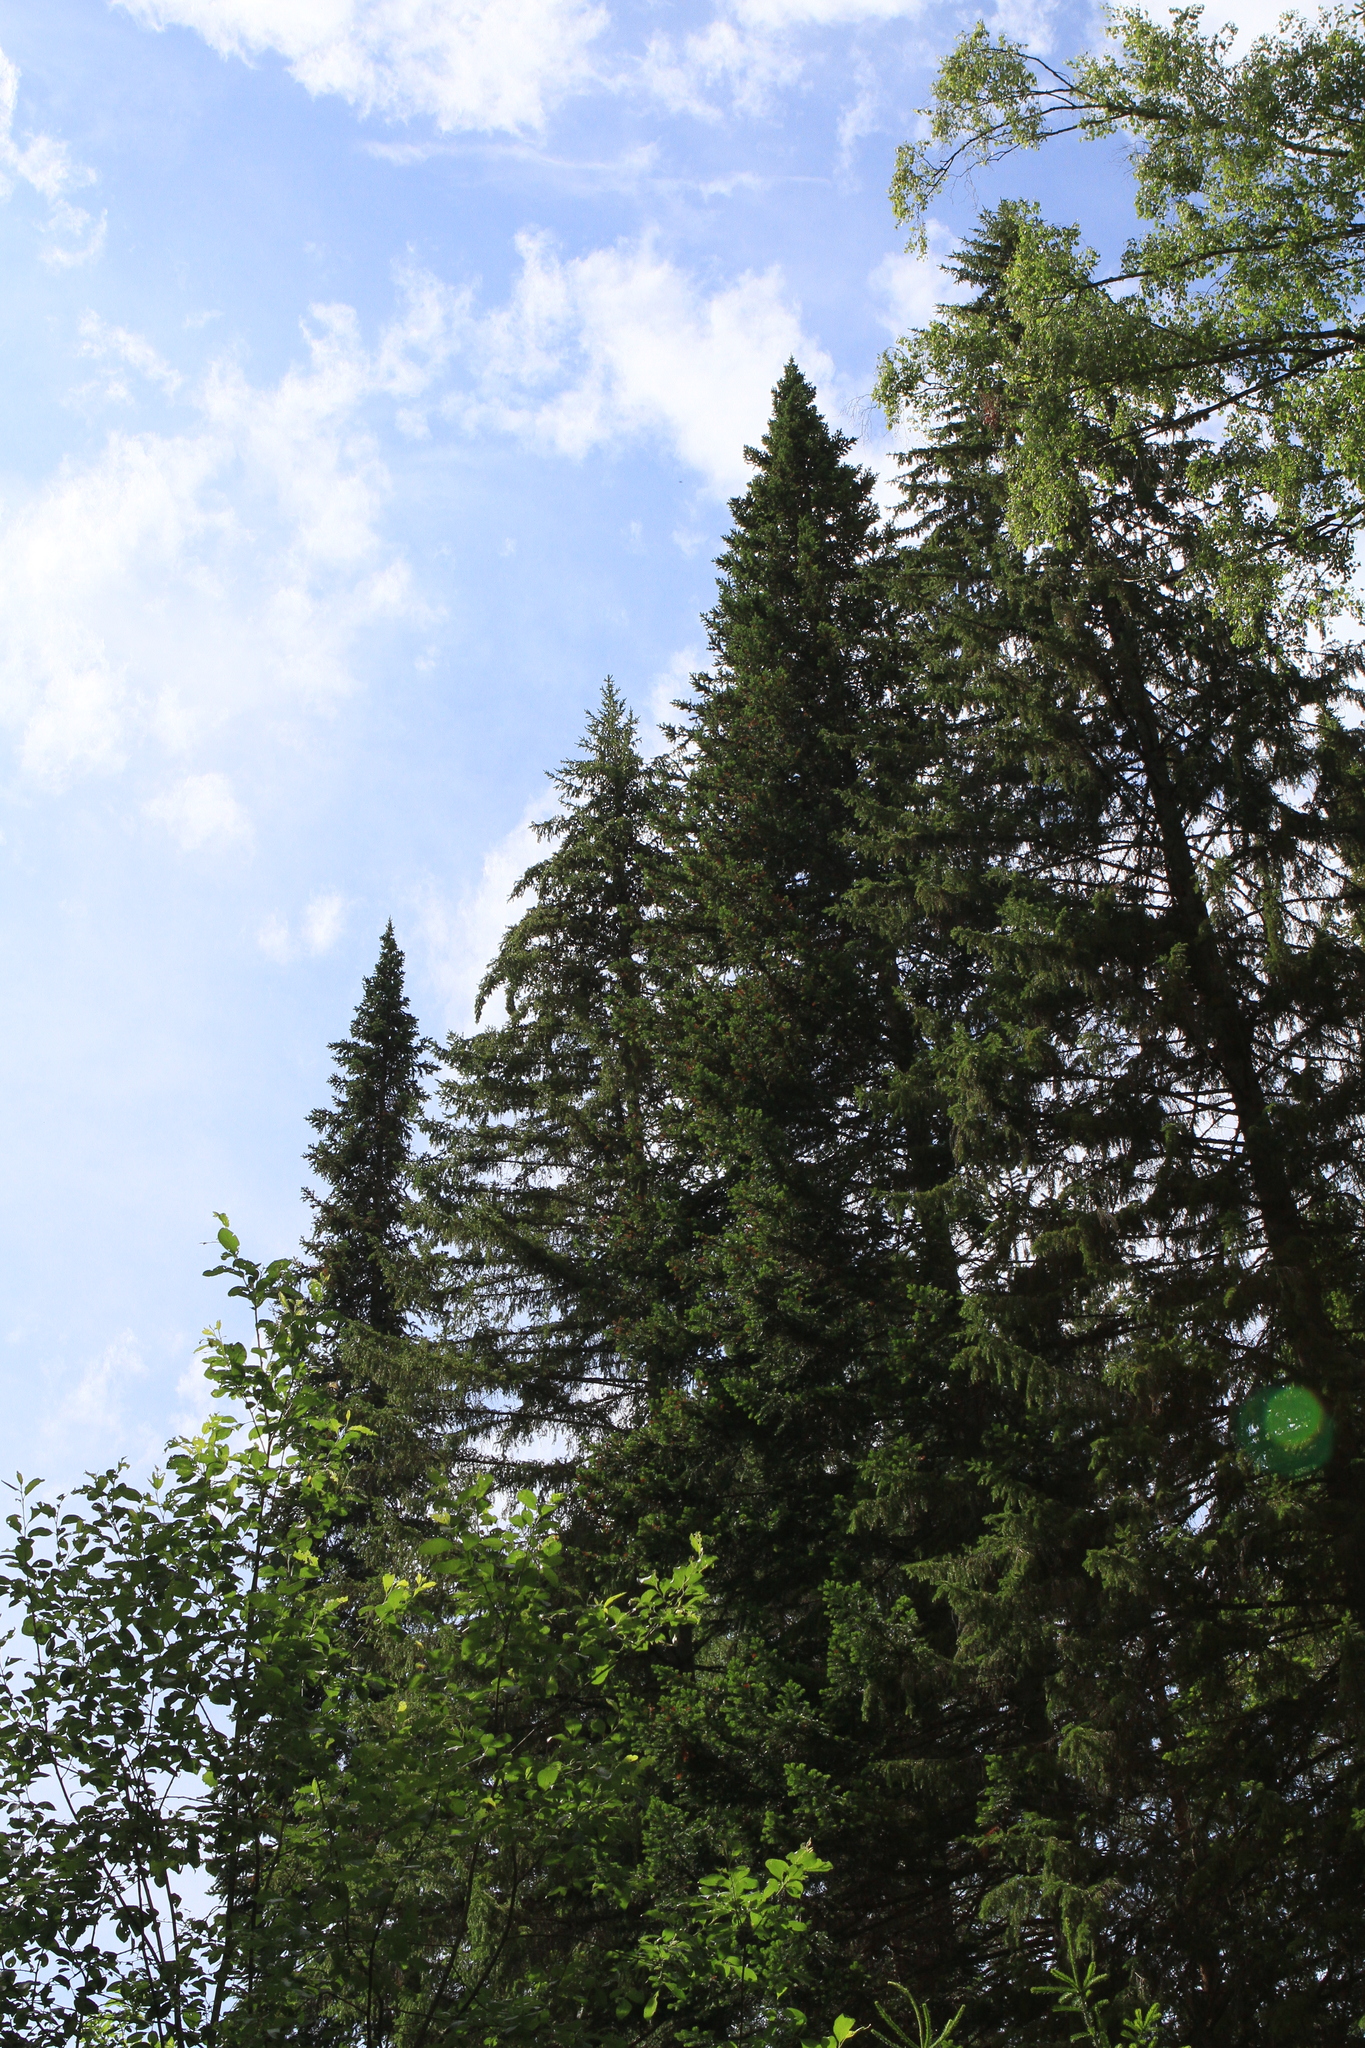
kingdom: Plantae
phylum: Tracheophyta
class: Pinopsida
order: Pinales
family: Pinaceae
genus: Picea
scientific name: Picea obovata
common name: Siberian spruce
